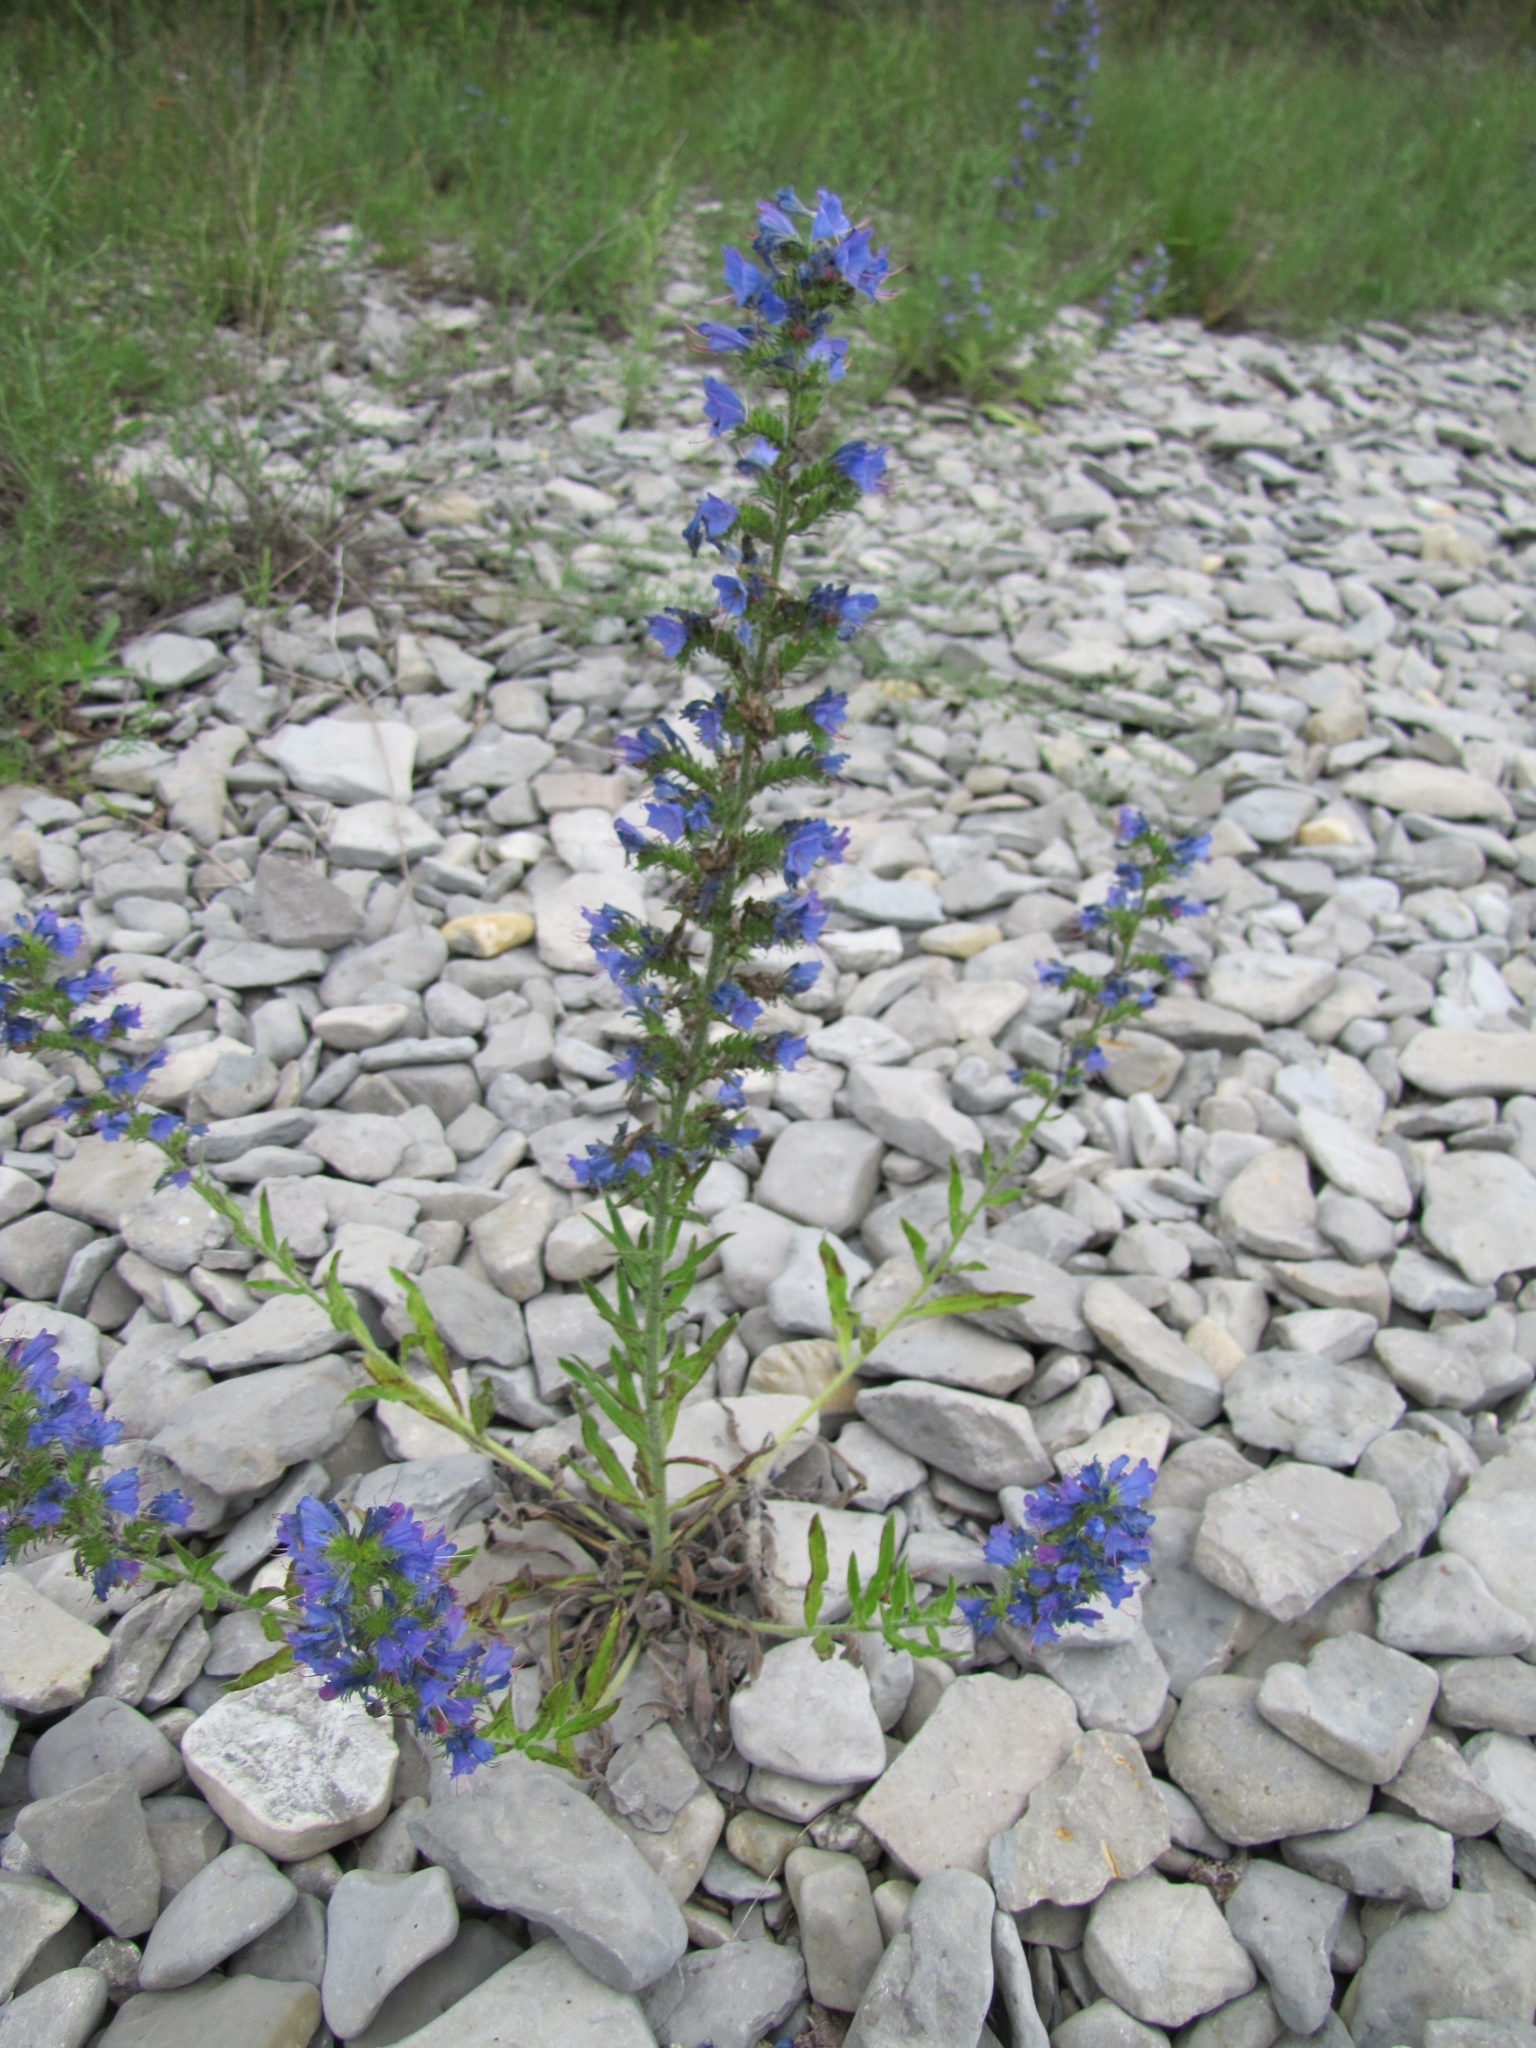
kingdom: Plantae
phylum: Tracheophyta
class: Magnoliopsida
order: Boraginales
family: Boraginaceae
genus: Echium
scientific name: Echium vulgare
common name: Common viper's bugloss
